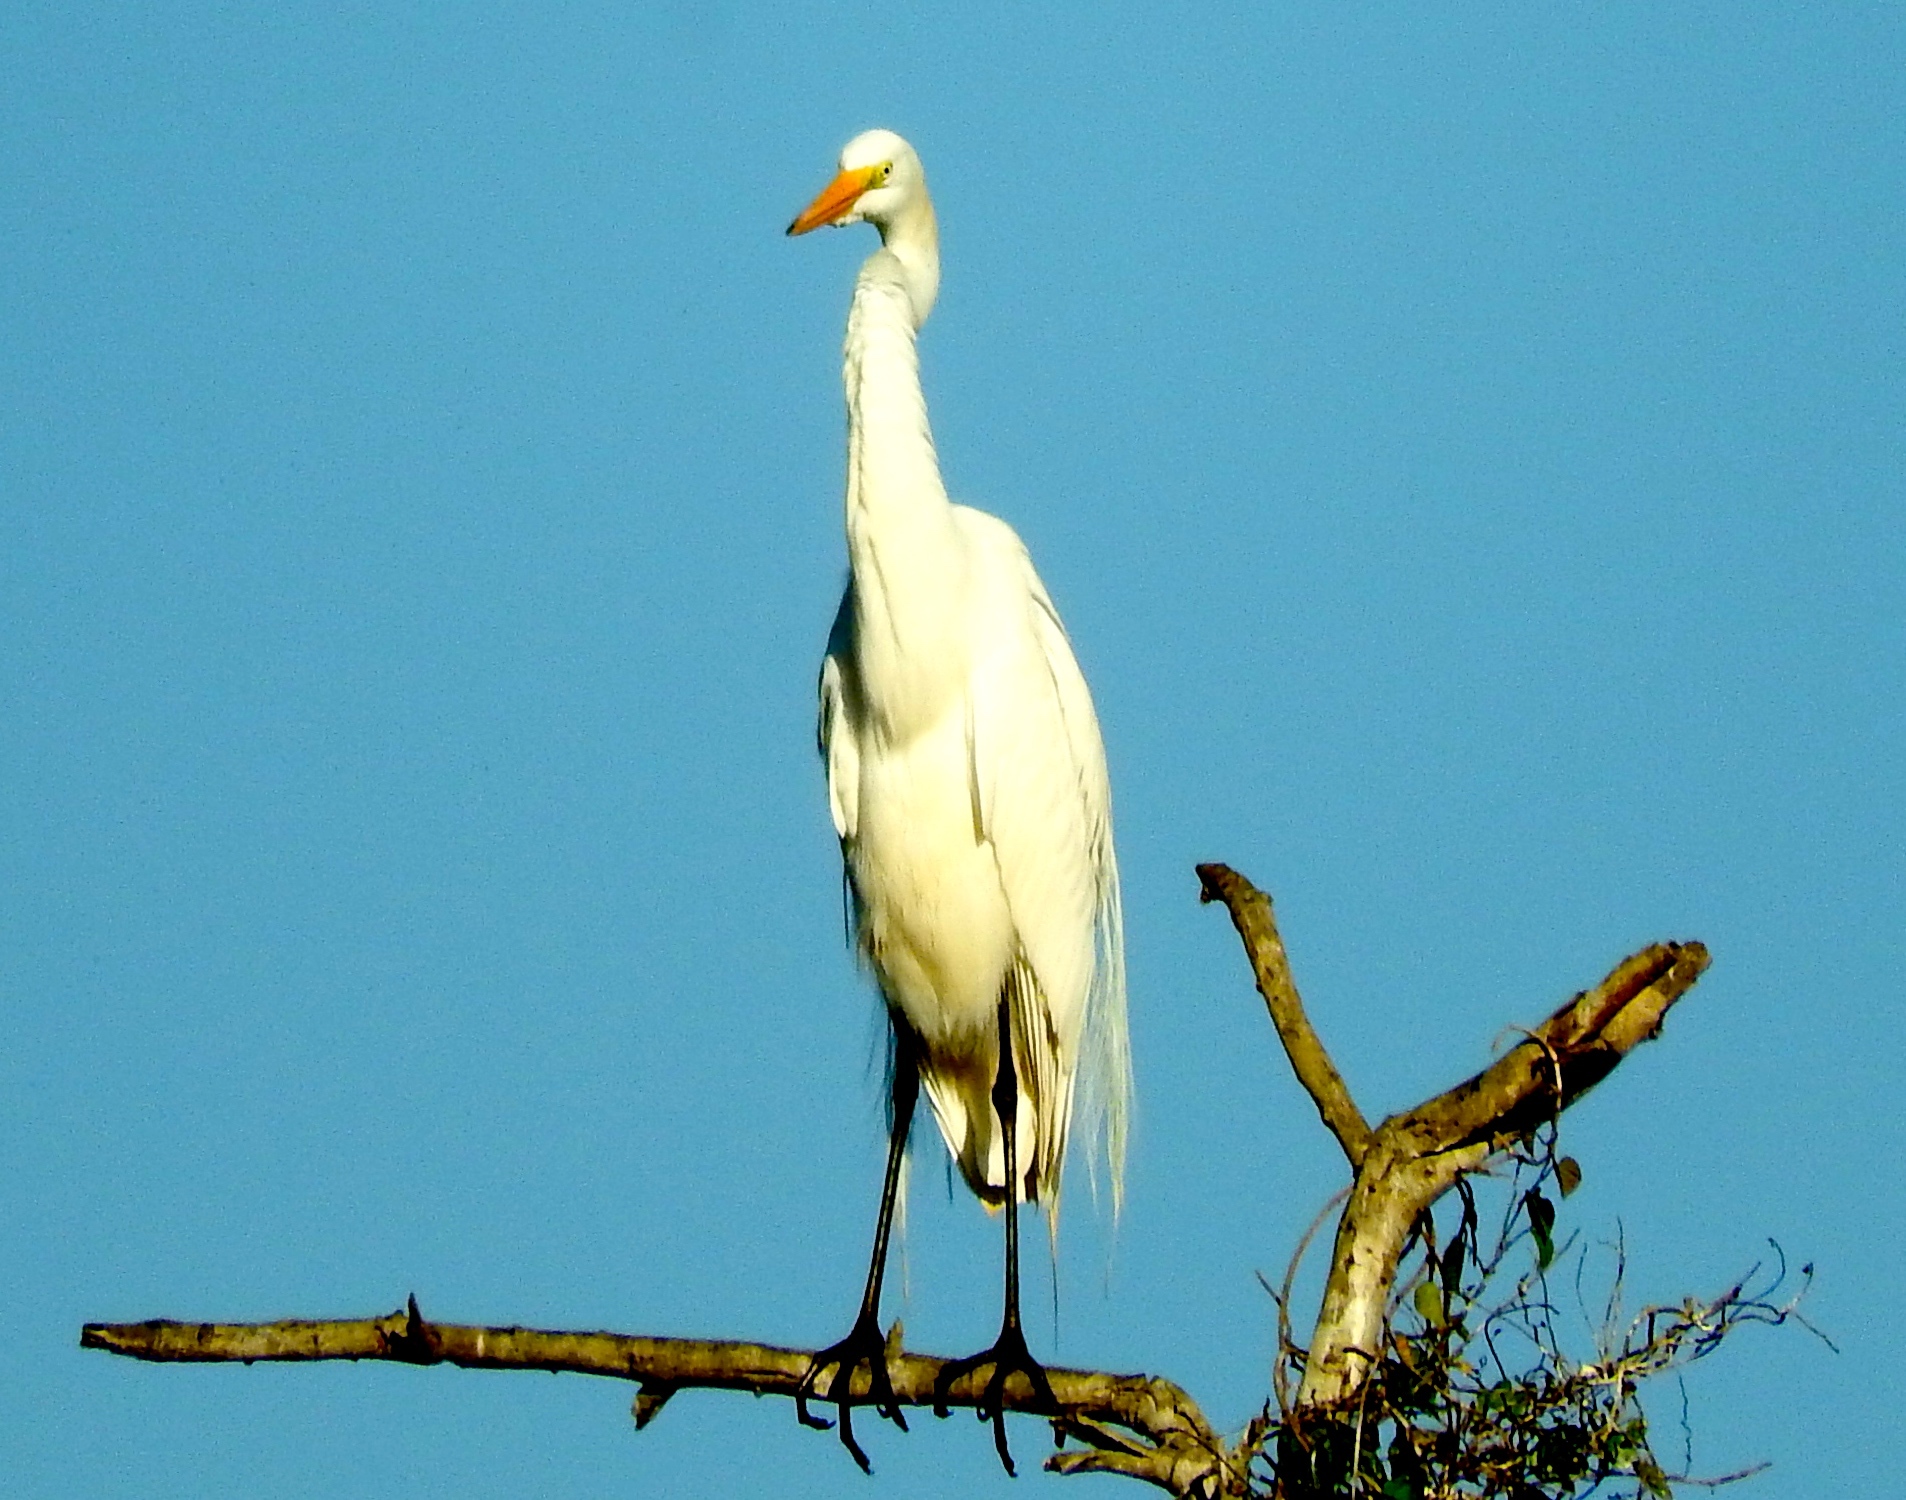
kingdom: Animalia
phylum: Chordata
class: Aves
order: Pelecaniformes
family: Ardeidae
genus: Ardea
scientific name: Ardea alba
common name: Great egret
